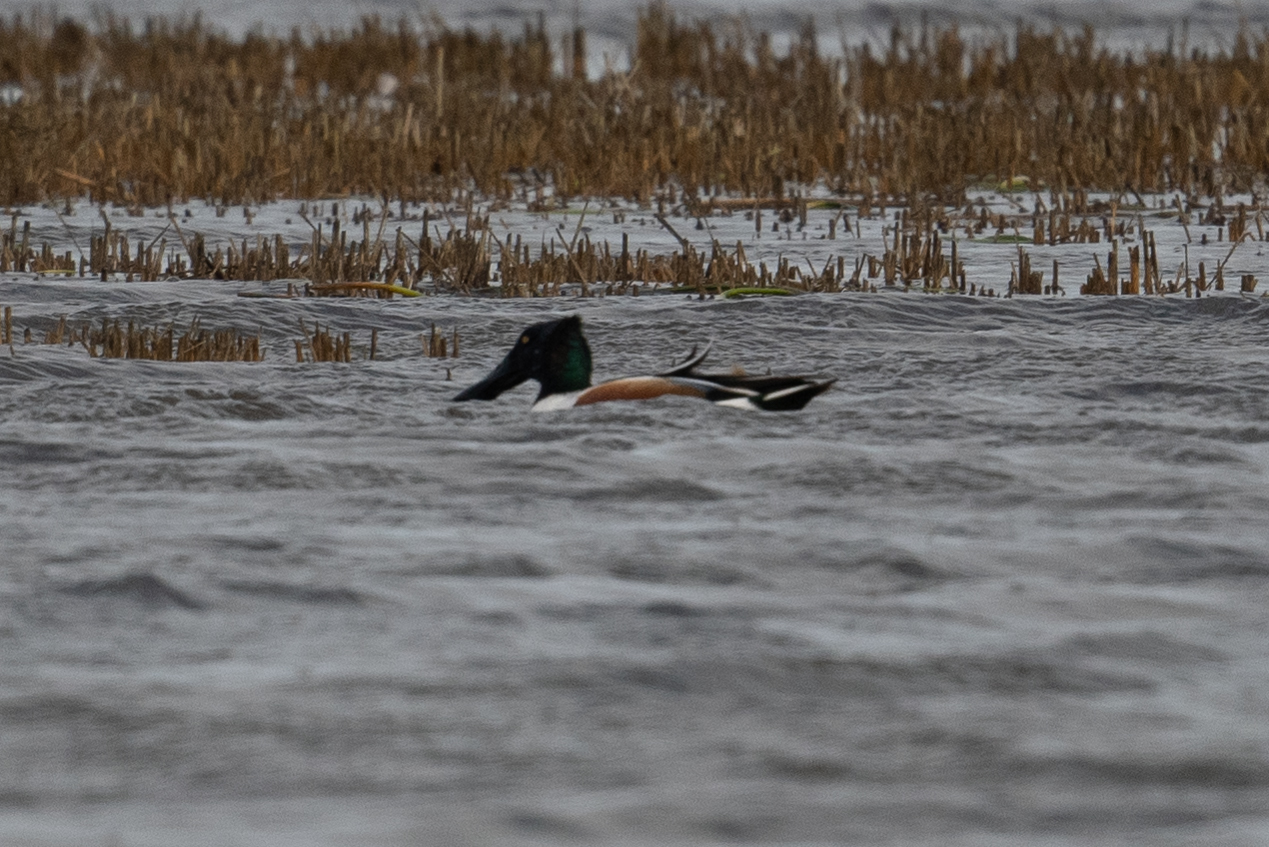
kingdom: Animalia
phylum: Chordata
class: Aves
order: Anseriformes
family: Anatidae
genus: Spatula
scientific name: Spatula clypeata
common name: Northern shoveler
